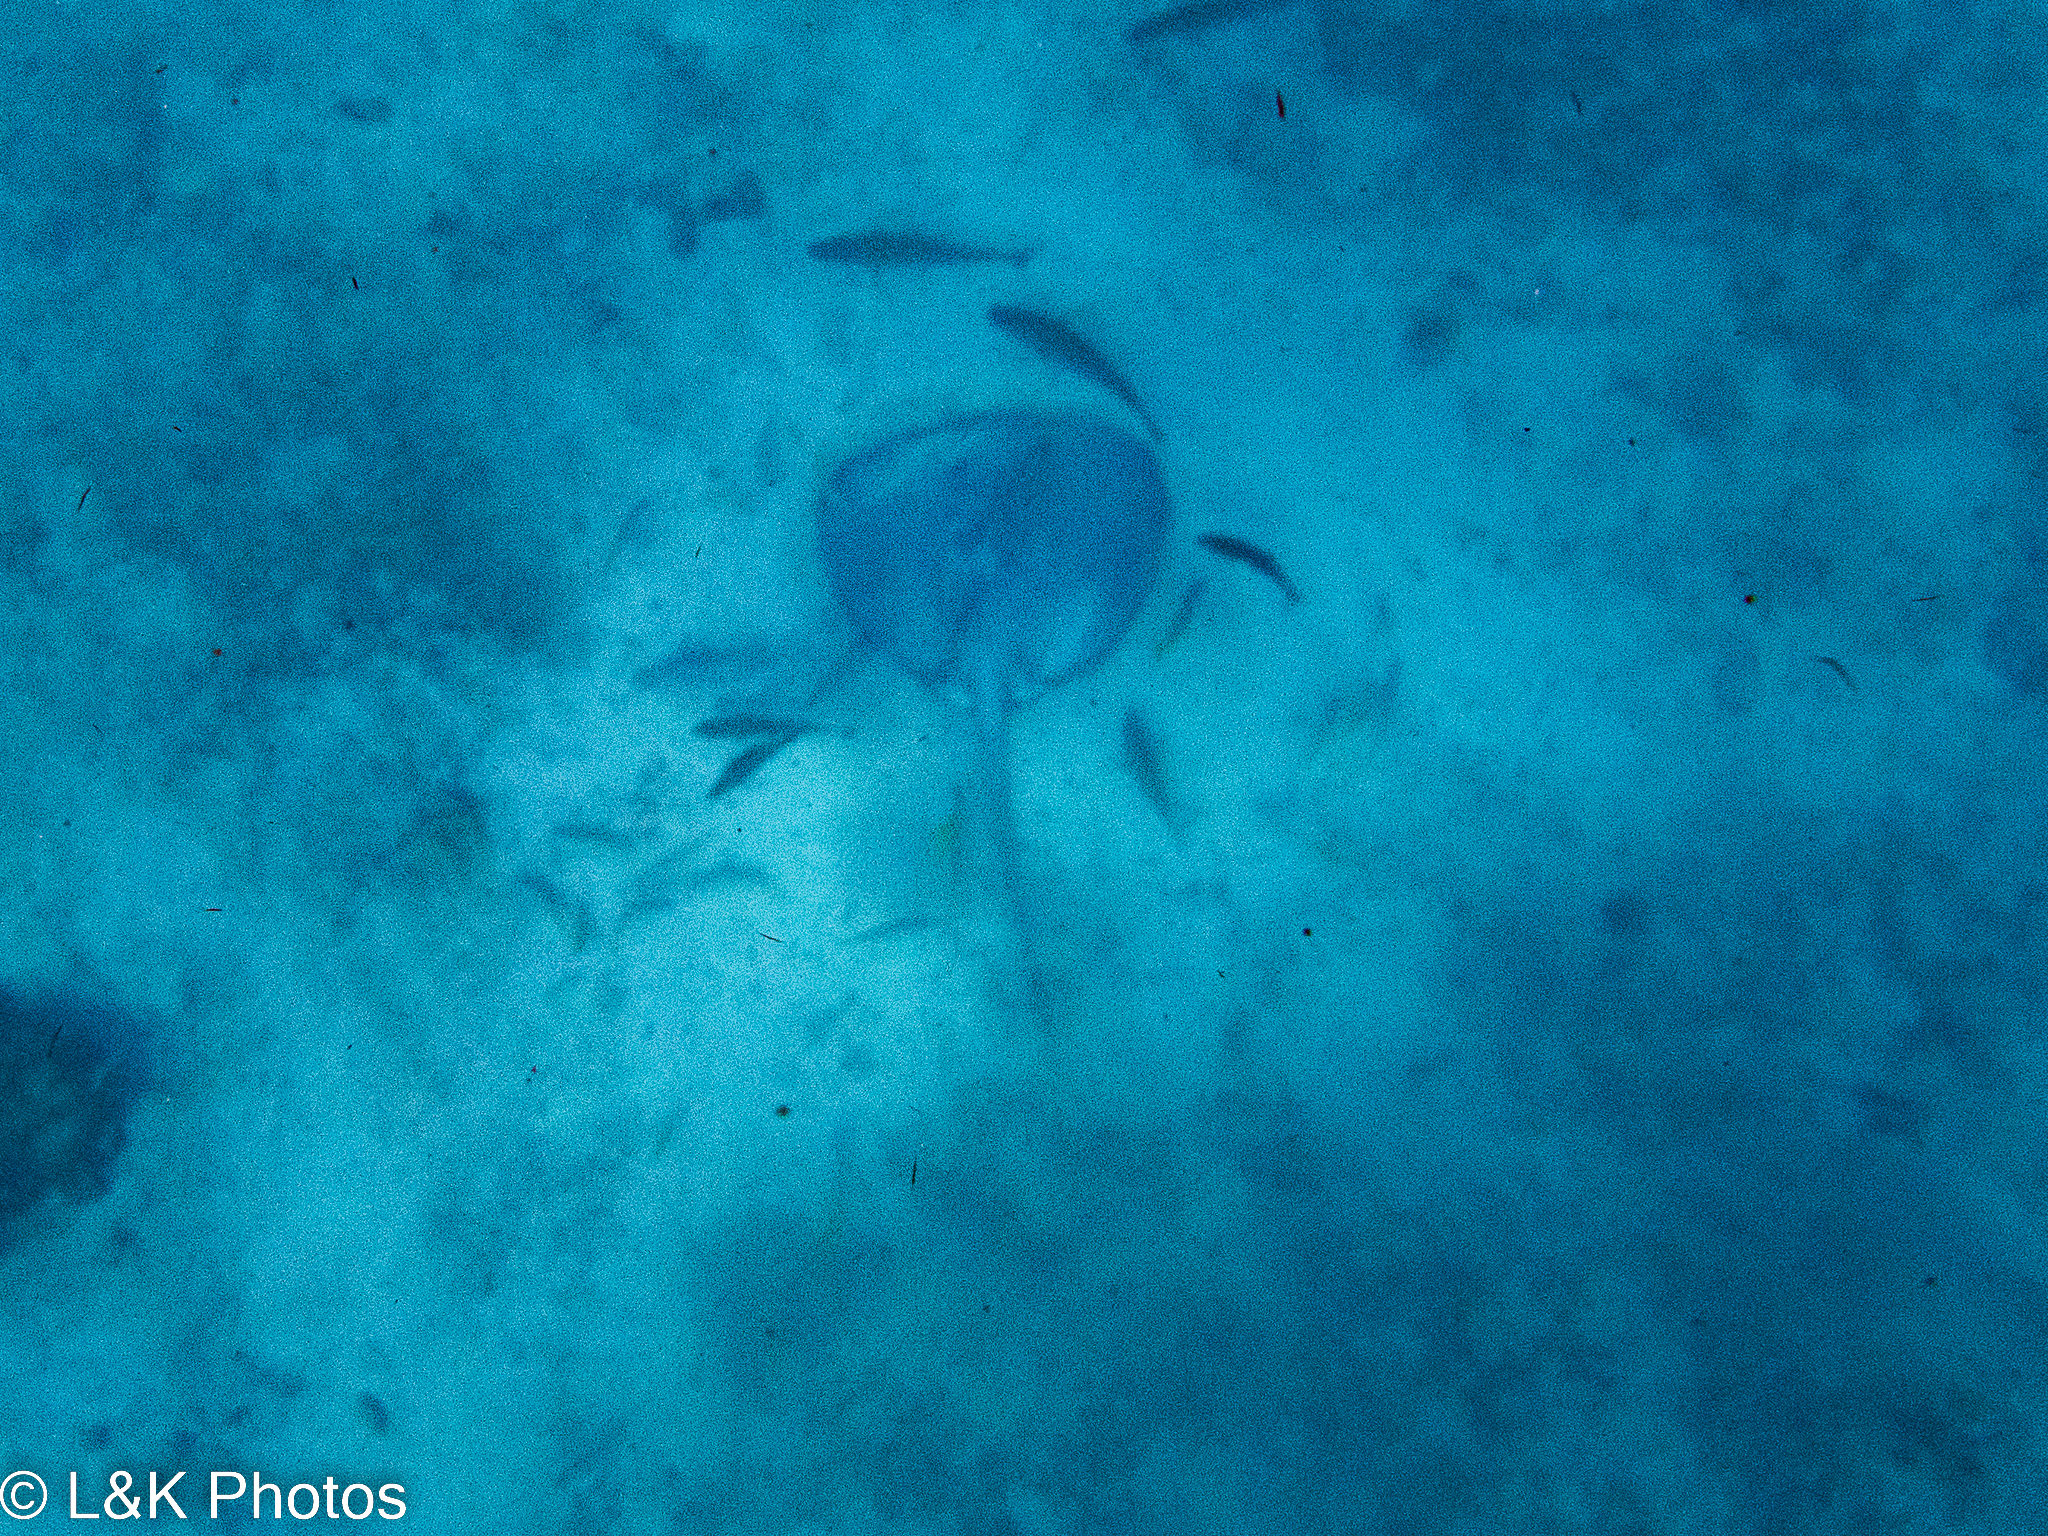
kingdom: Animalia
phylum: Chordata
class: Elasmobranchii
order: Myliobatiformes
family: Potamotrygonidae
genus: Styracura
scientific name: Styracura schmardae
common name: Atlantic chupare
